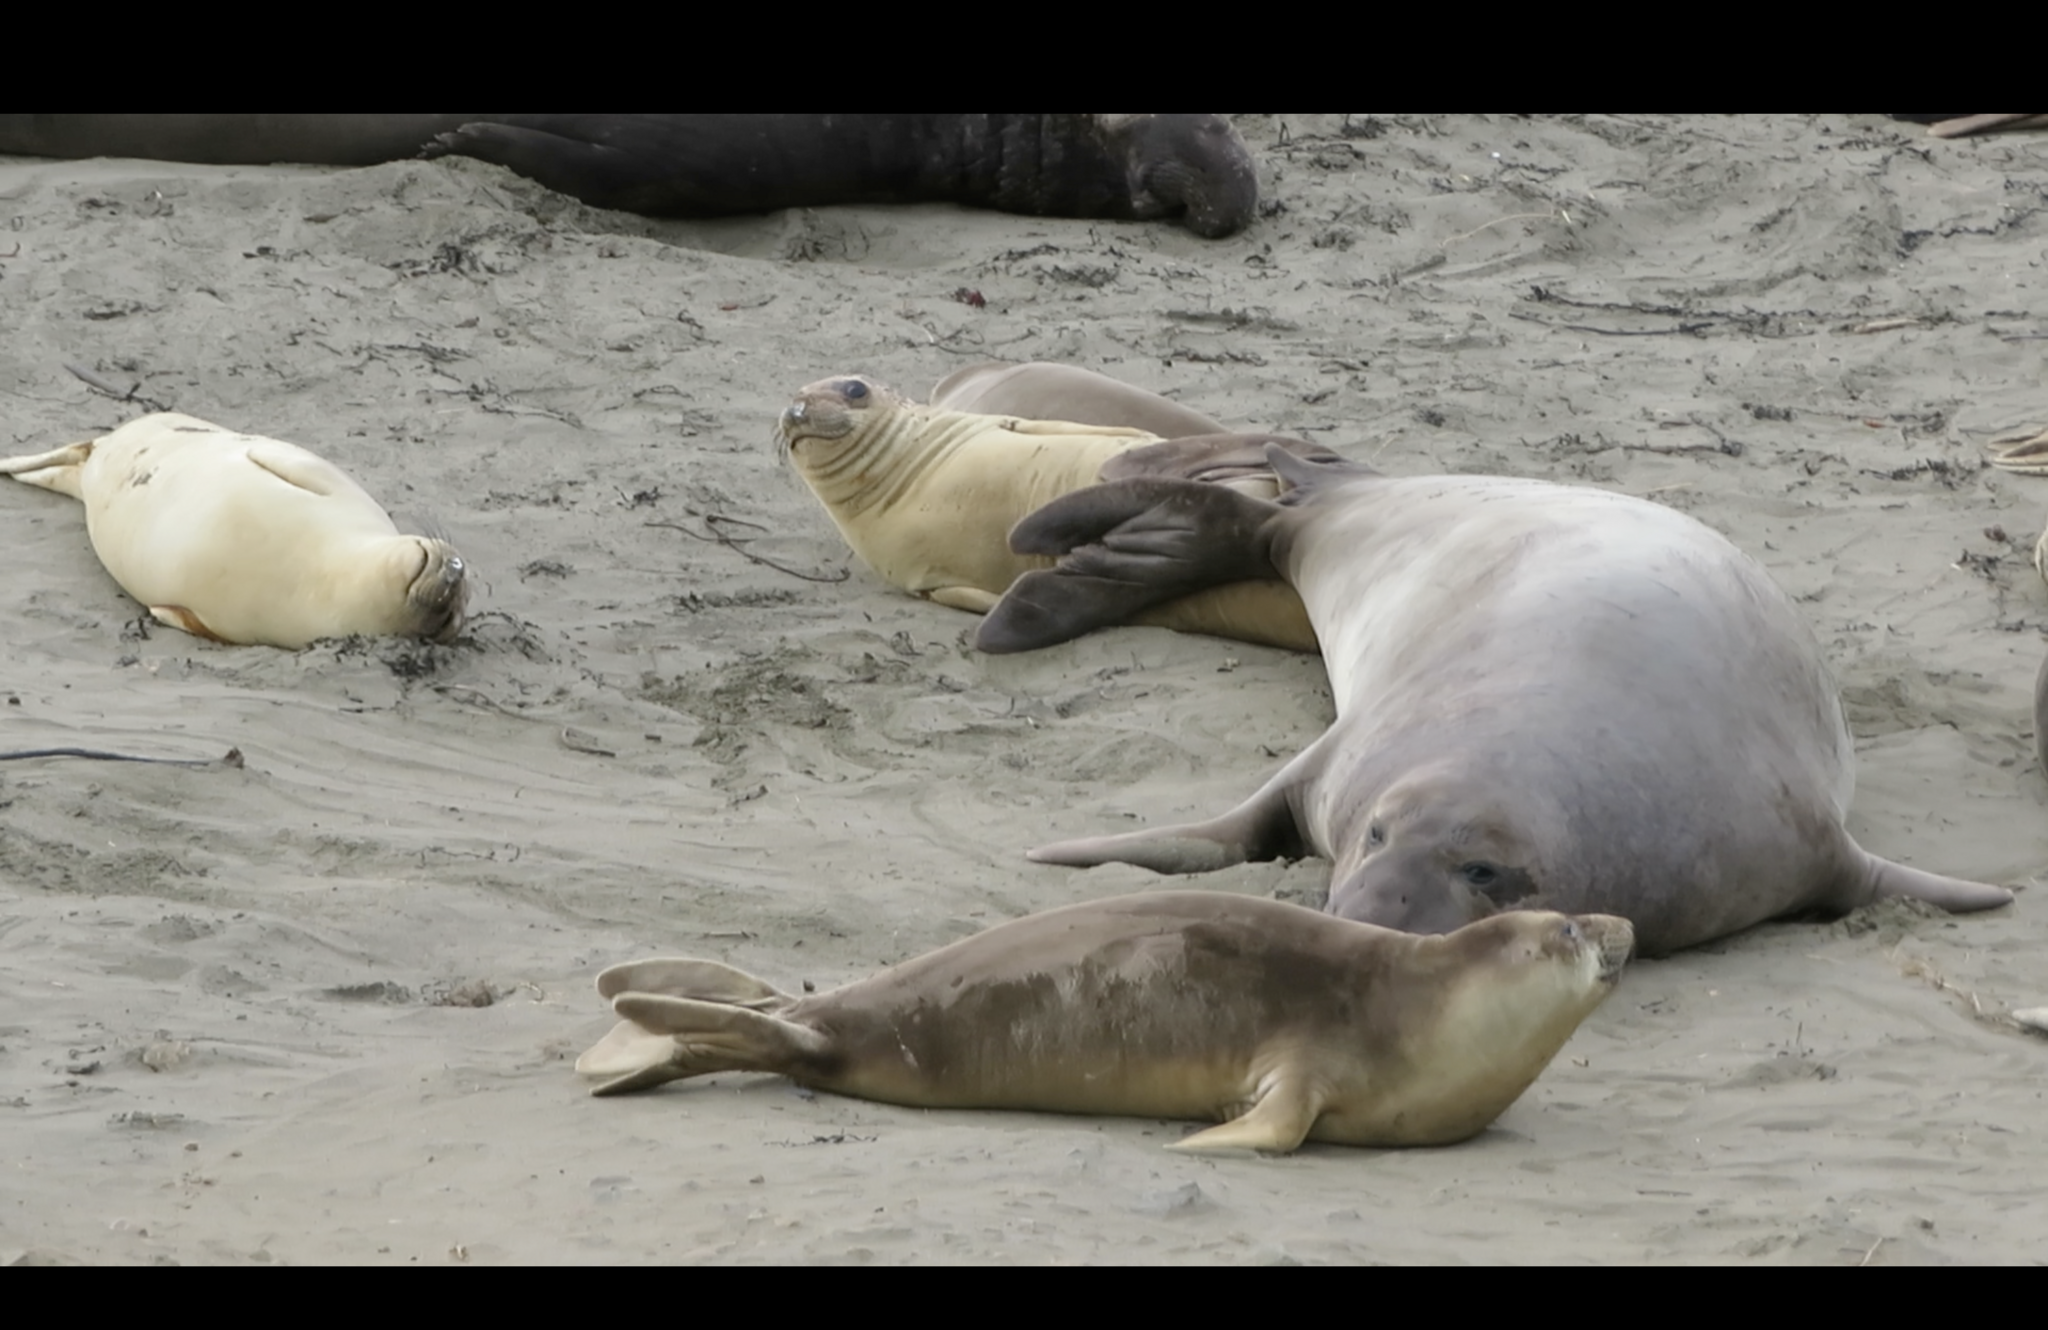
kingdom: Animalia
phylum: Chordata
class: Mammalia
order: Carnivora
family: Phocidae
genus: Mirounga
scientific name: Mirounga angustirostris
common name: Northern elephant seal
